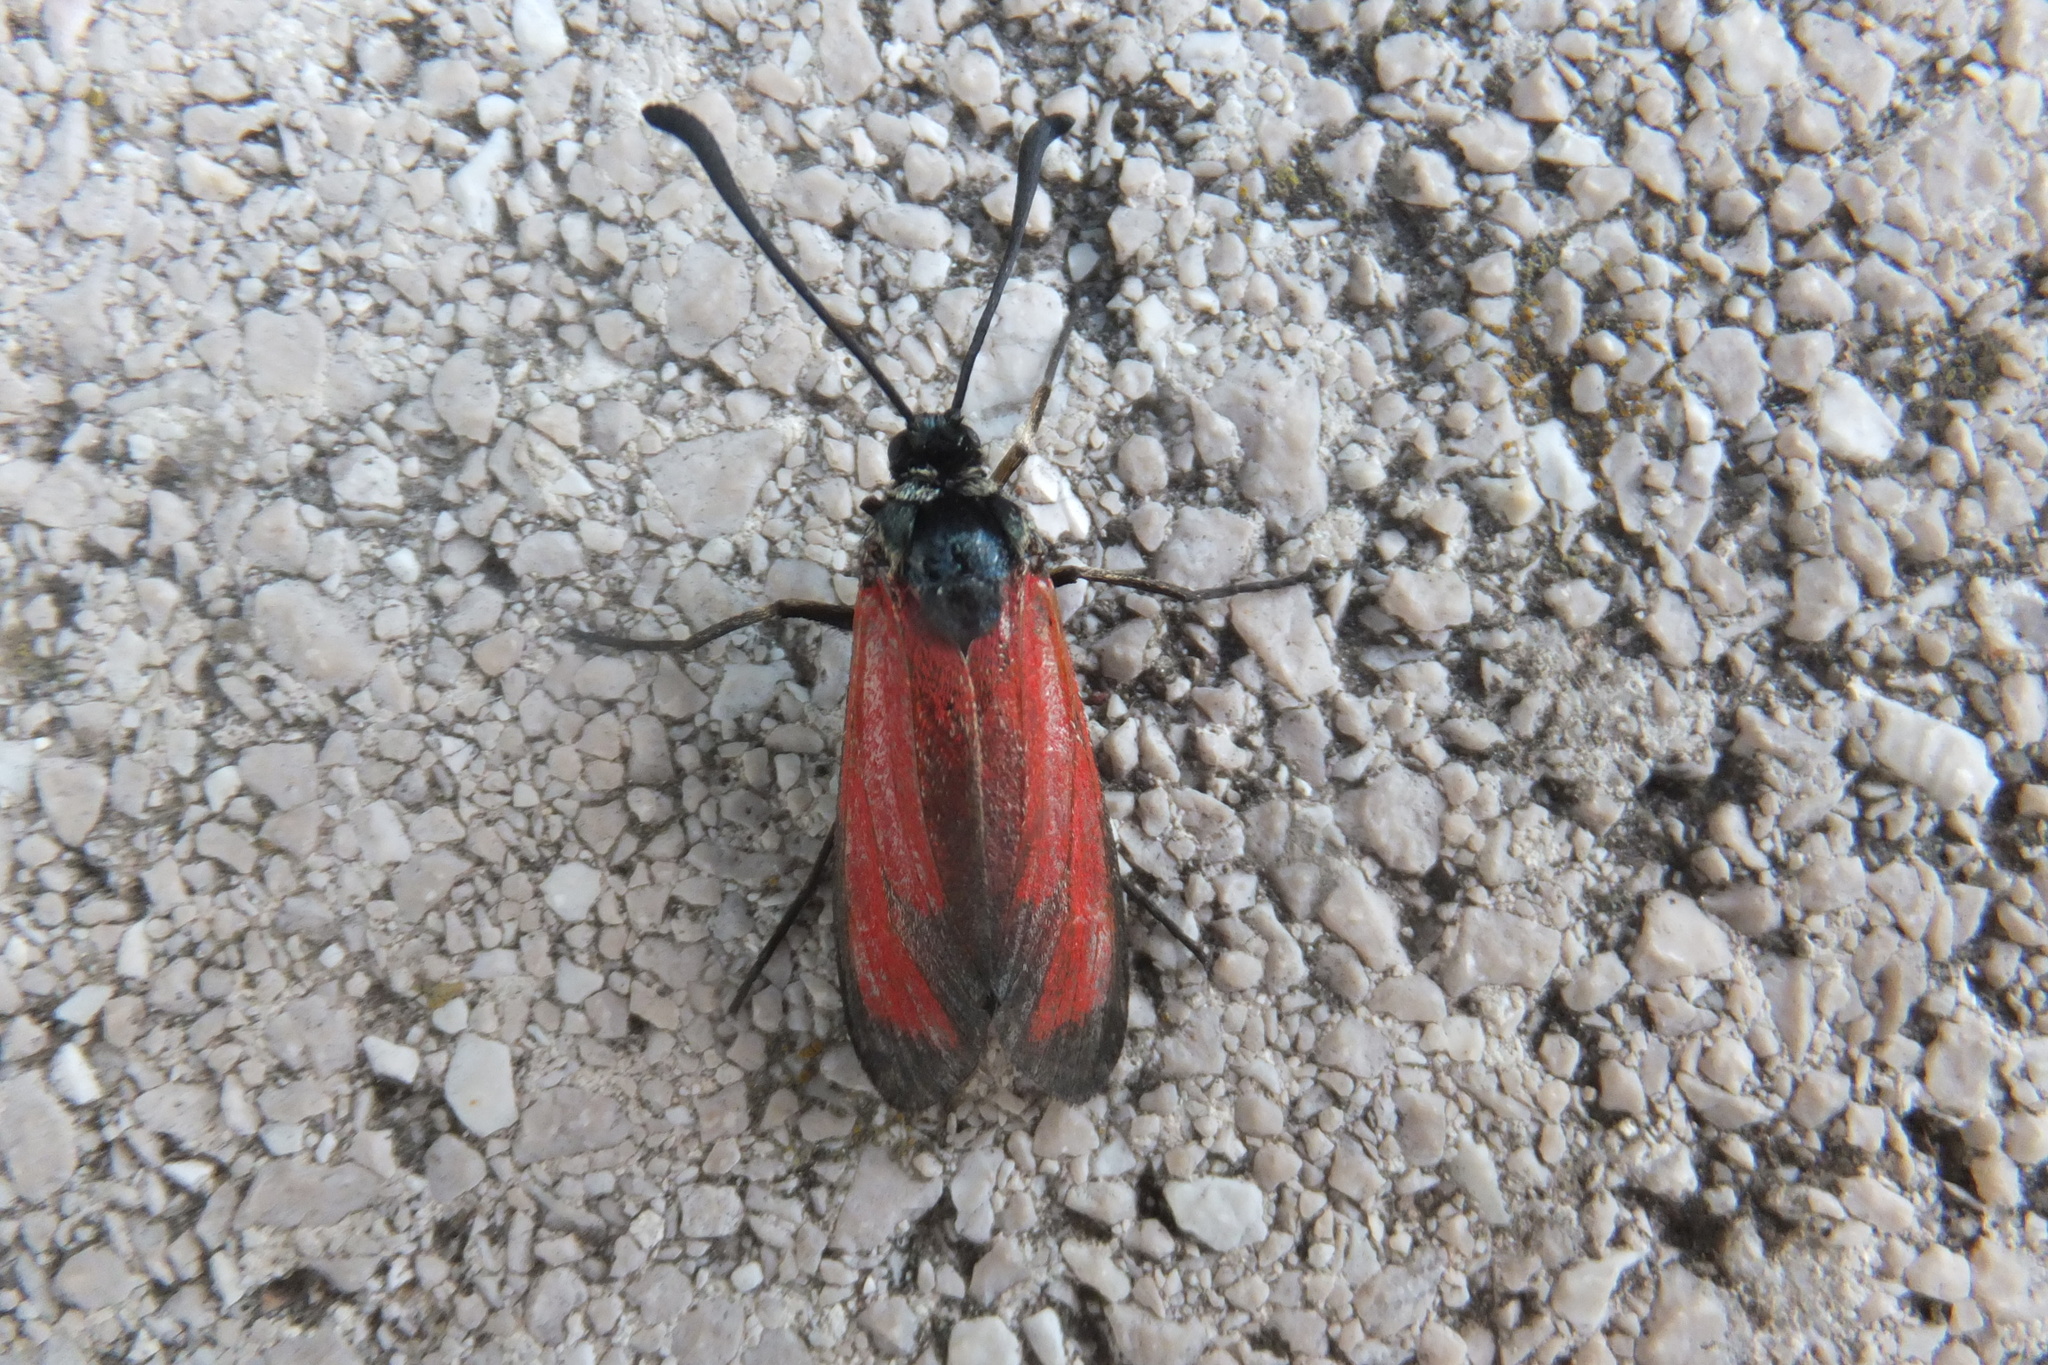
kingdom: Animalia
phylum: Arthropoda
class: Insecta
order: Lepidoptera
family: Zygaenidae
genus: Zygaena
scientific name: Zygaena erythrus
